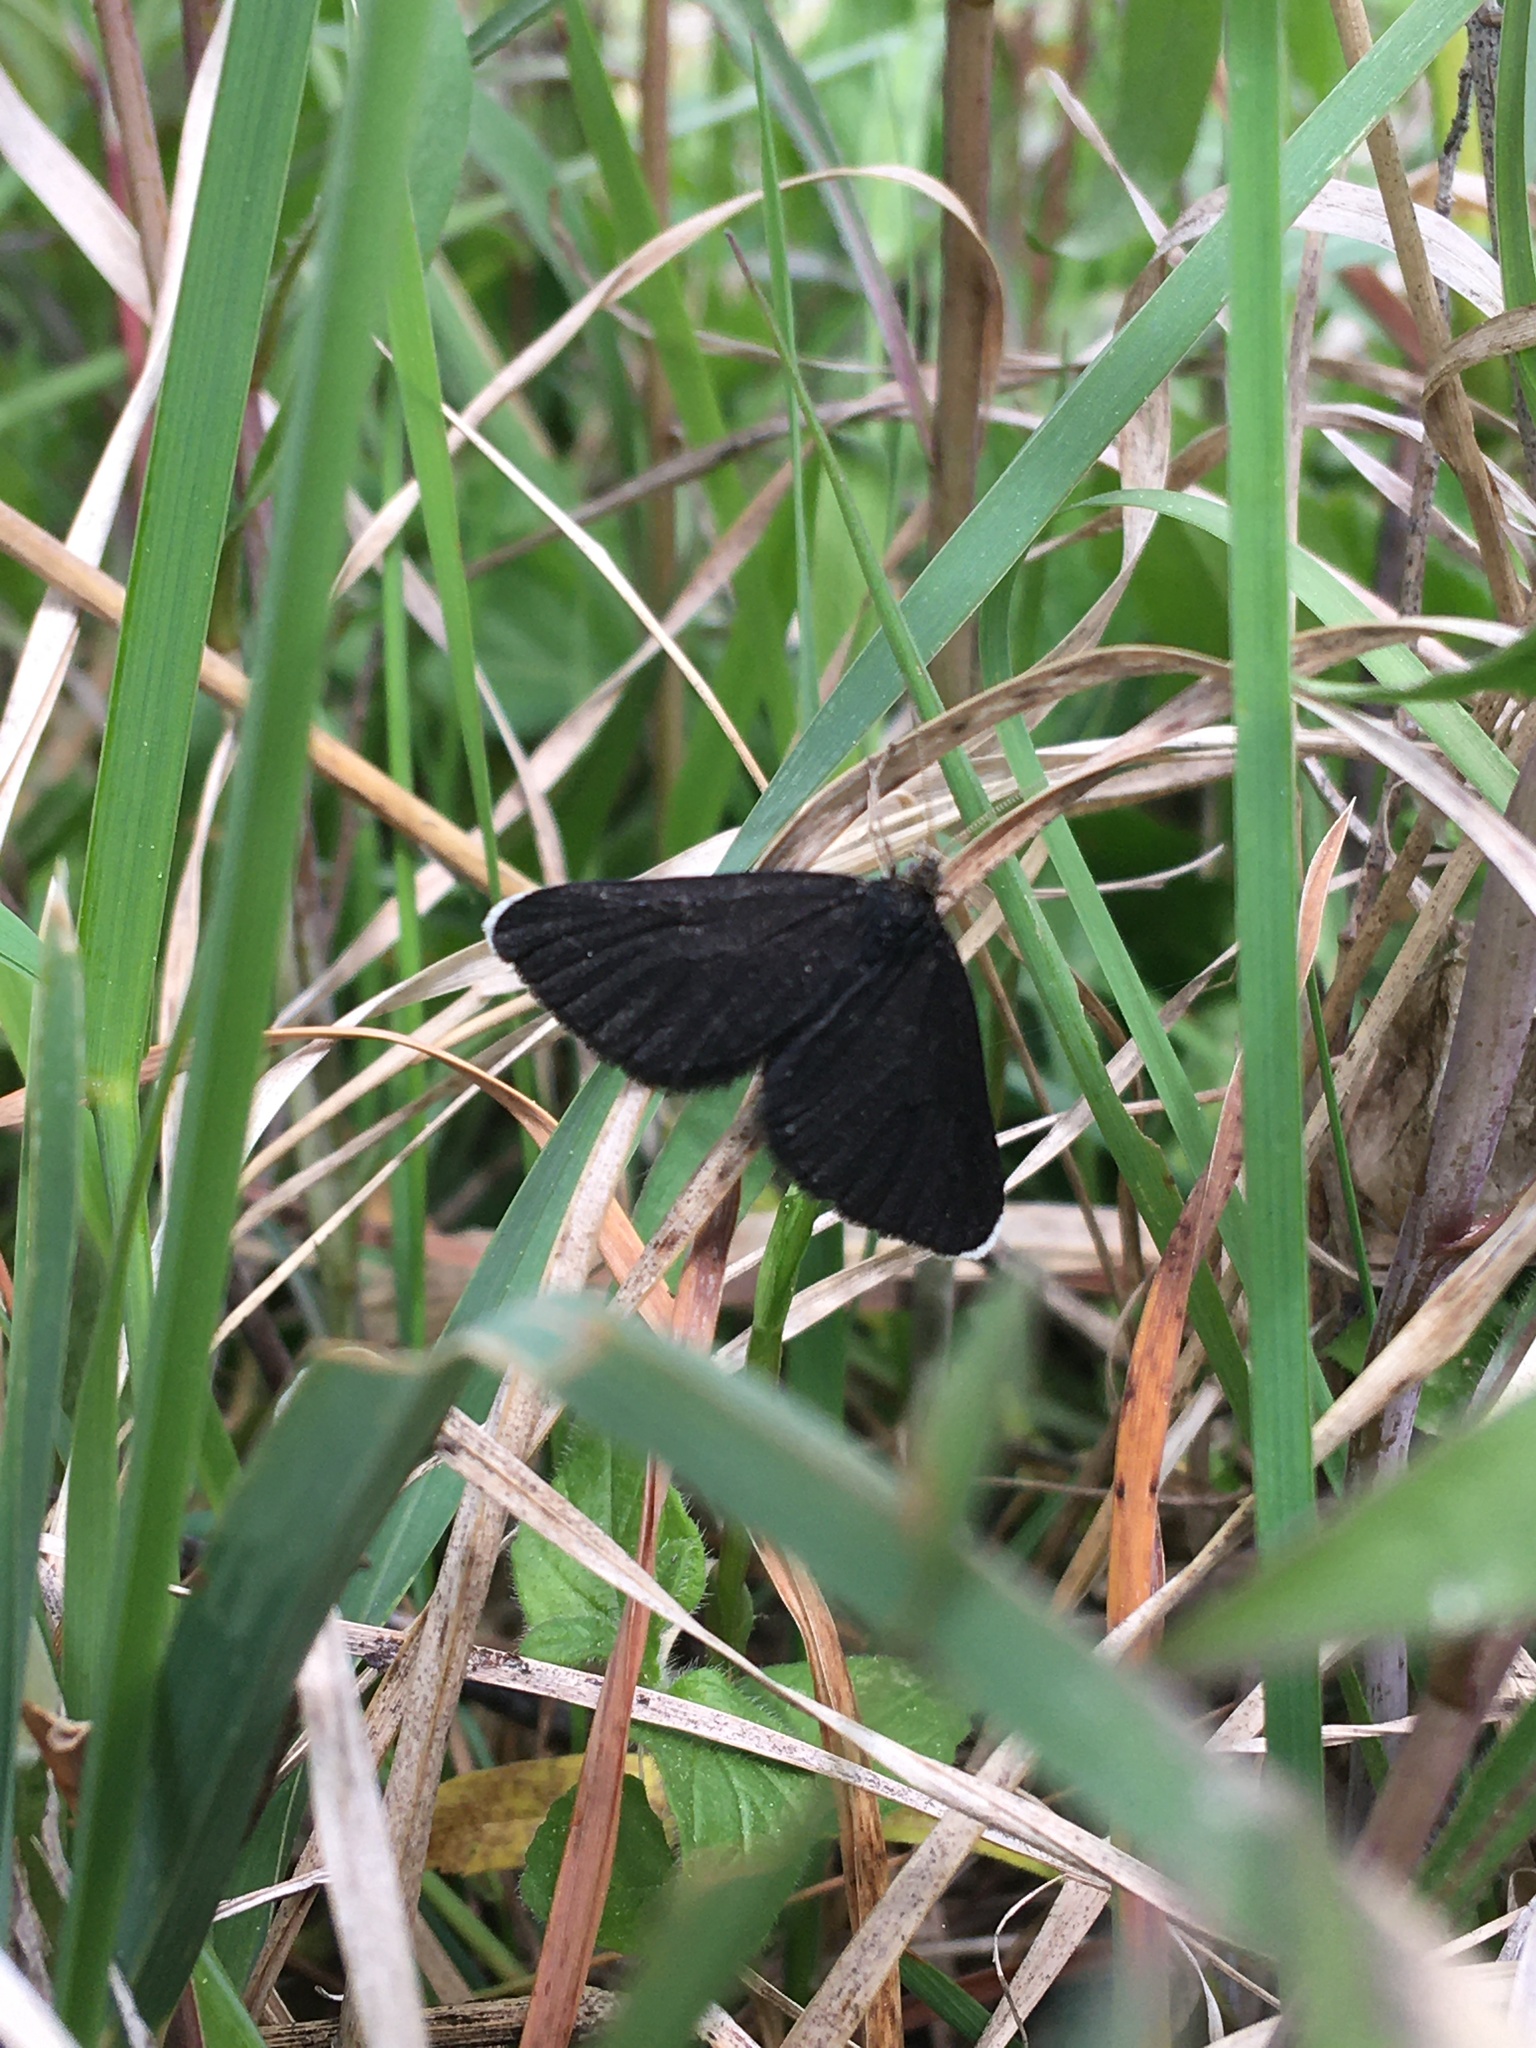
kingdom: Animalia
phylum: Arthropoda
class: Insecta
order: Lepidoptera
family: Geometridae
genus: Odezia
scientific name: Odezia atrata
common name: Chimney sweeper
